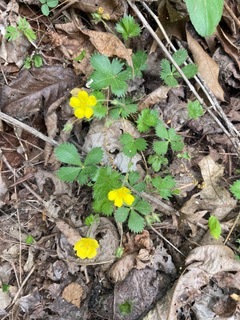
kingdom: Plantae
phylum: Tracheophyta
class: Magnoliopsida
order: Rosales
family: Rosaceae
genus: Potentilla
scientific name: Potentilla canadensis
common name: Canada cinquefoil
